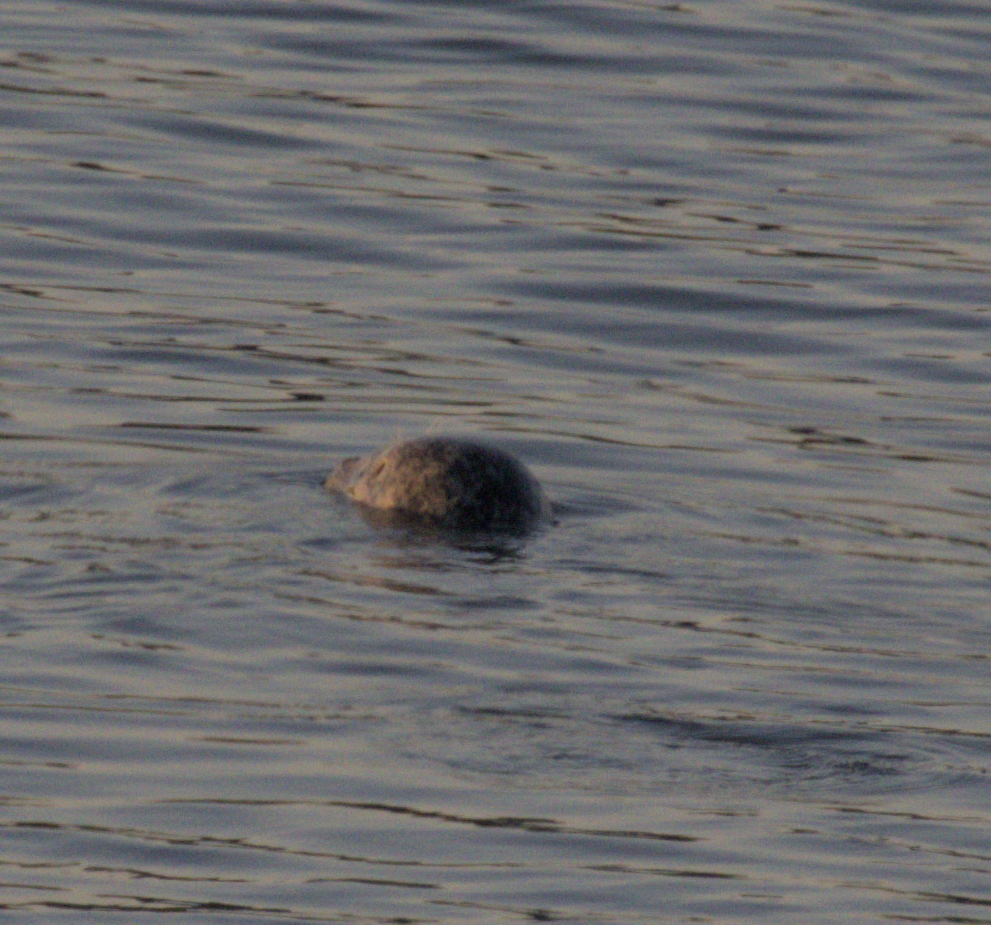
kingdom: Animalia
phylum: Chordata
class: Mammalia
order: Carnivora
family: Phocidae
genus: Phoca
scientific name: Phoca vitulina
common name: Harbor seal
